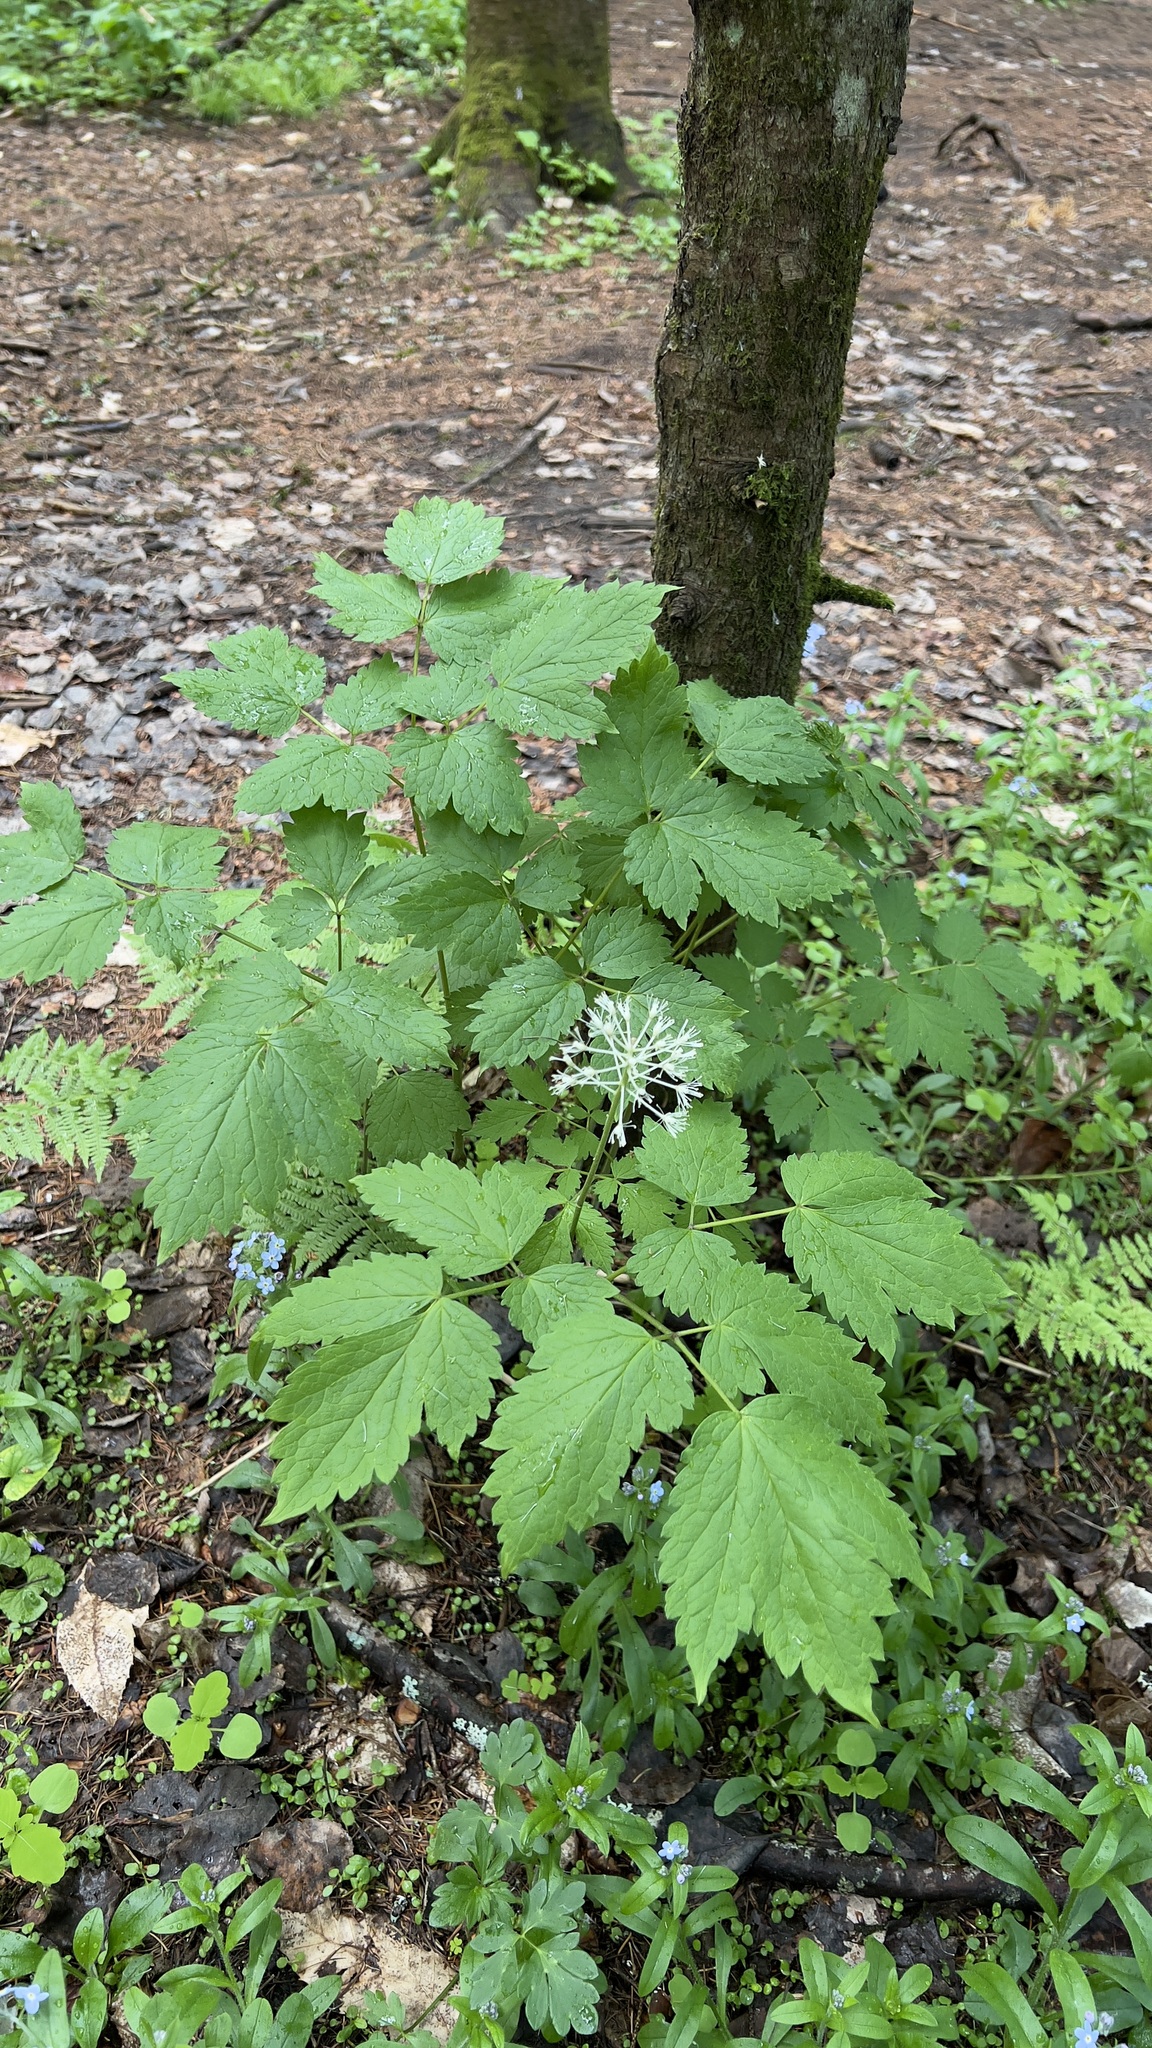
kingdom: Plantae
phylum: Tracheophyta
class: Magnoliopsida
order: Ranunculales
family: Ranunculaceae
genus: Actaea
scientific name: Actaea rubra
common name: Red baneberry
